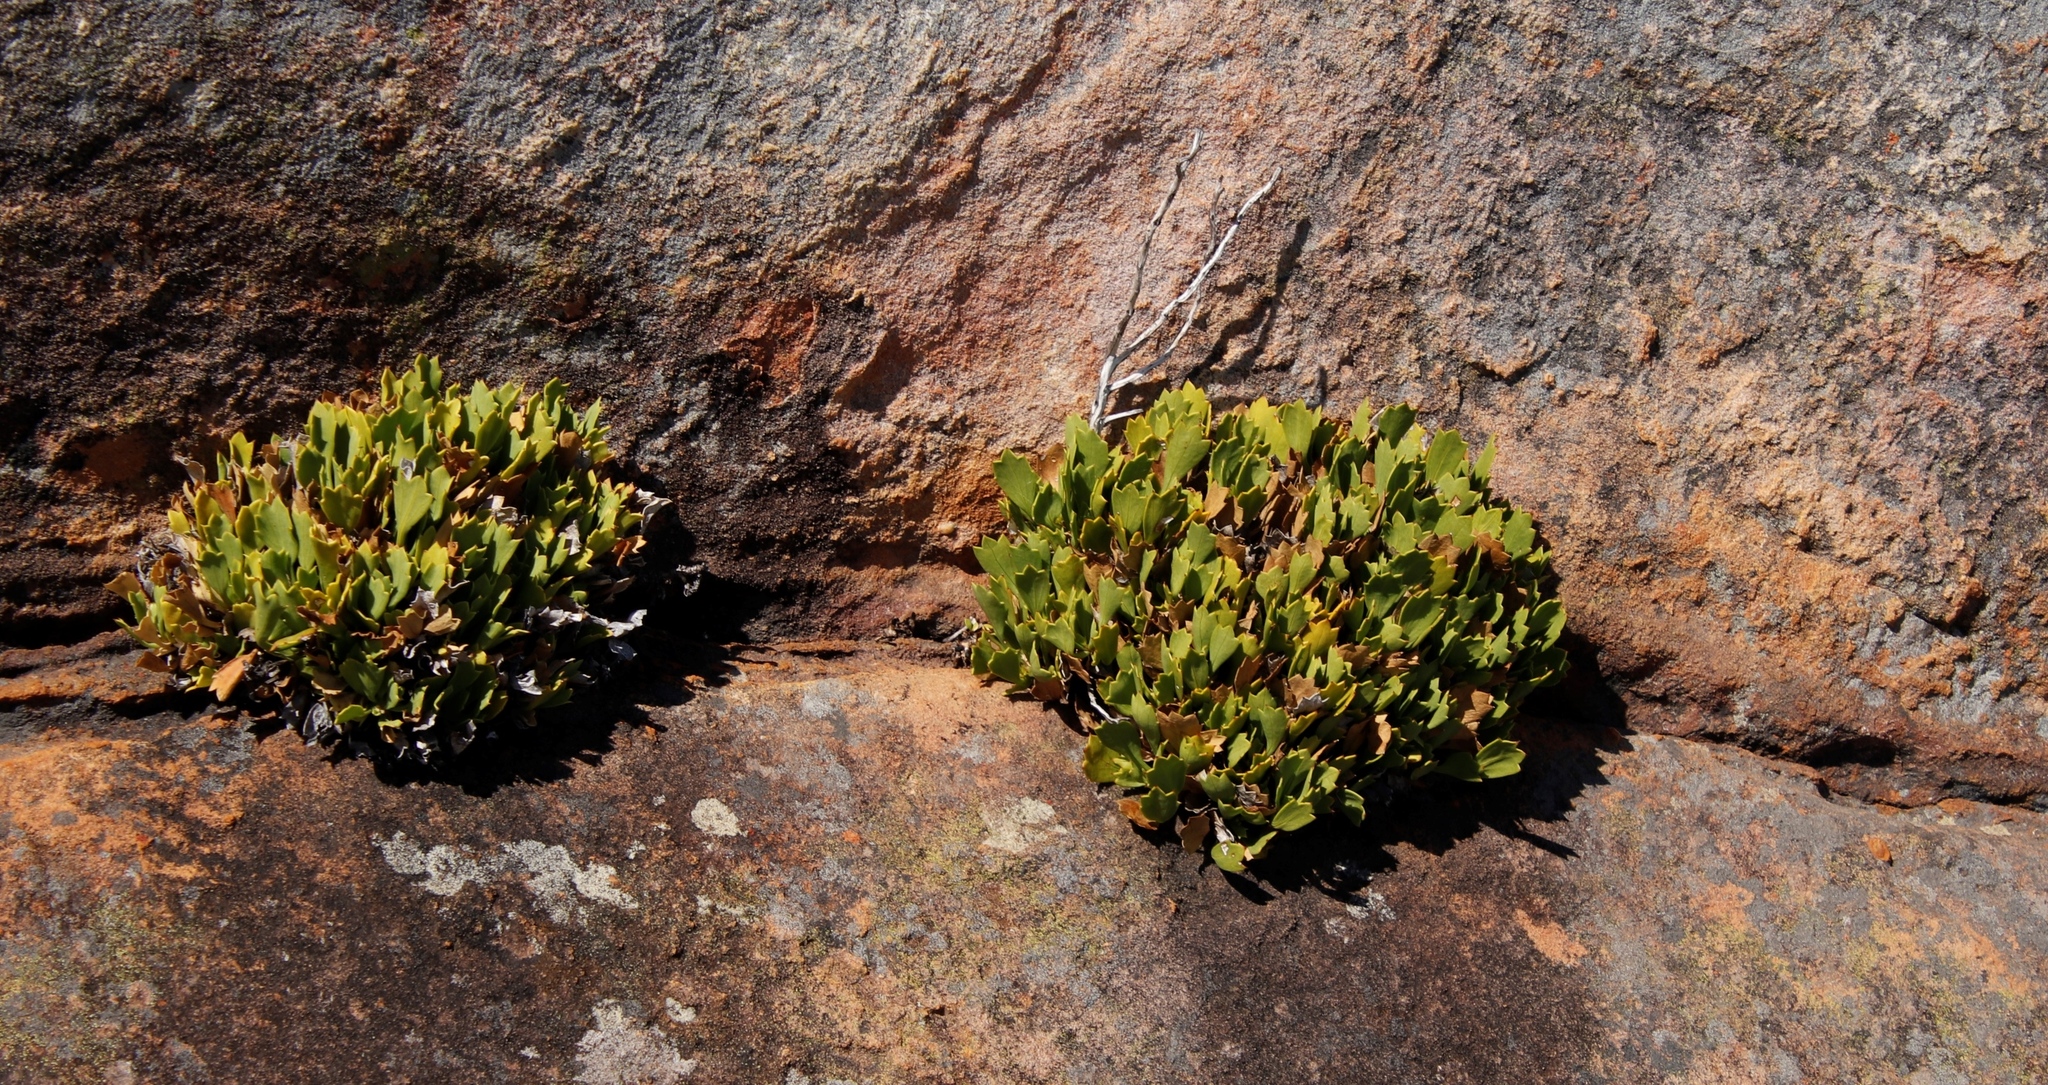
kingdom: Plantae
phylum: Tracheophyta
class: Magnoliopsida
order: Apiales
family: Apiaceae
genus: Centella
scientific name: Centella triloba
